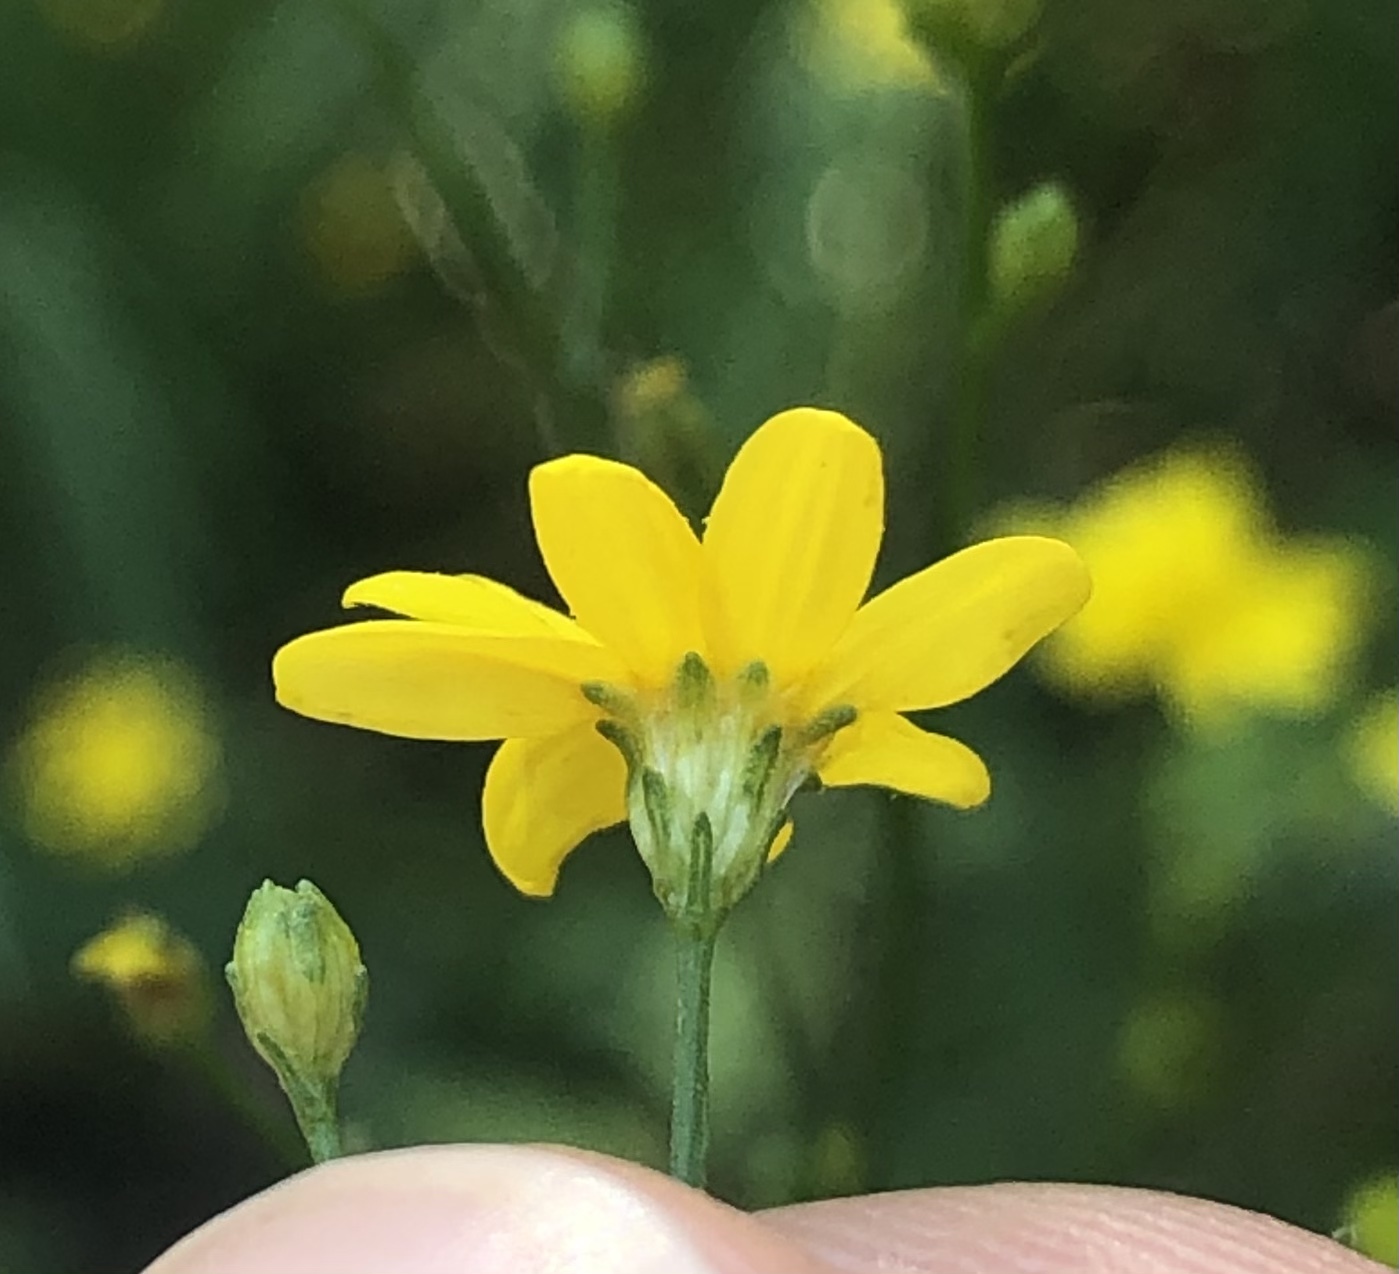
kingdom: Plantae
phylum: Tracheophyta
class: Magnoliopsida
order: Asterales
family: Asteraceae
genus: Gutierrezia
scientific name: Gutierrezia texana
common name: Texas snakeweed
